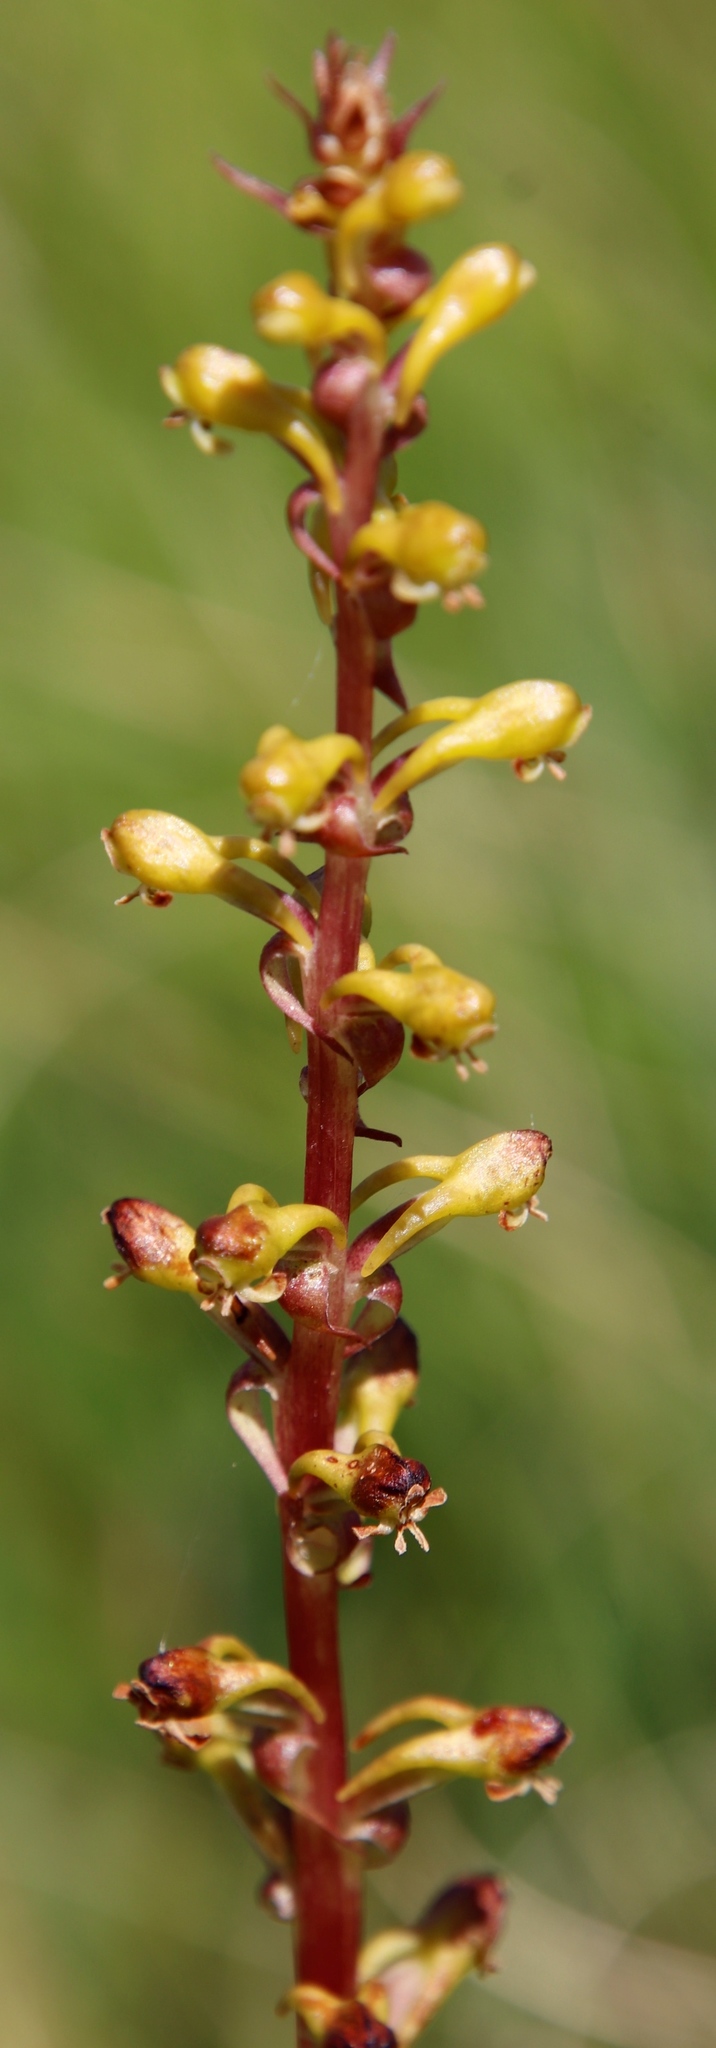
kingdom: Plantae
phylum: Tracheophyta
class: Liliopsida
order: Asparagales
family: Orchidaceae
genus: Satyrium
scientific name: Satyrium parviflorum
